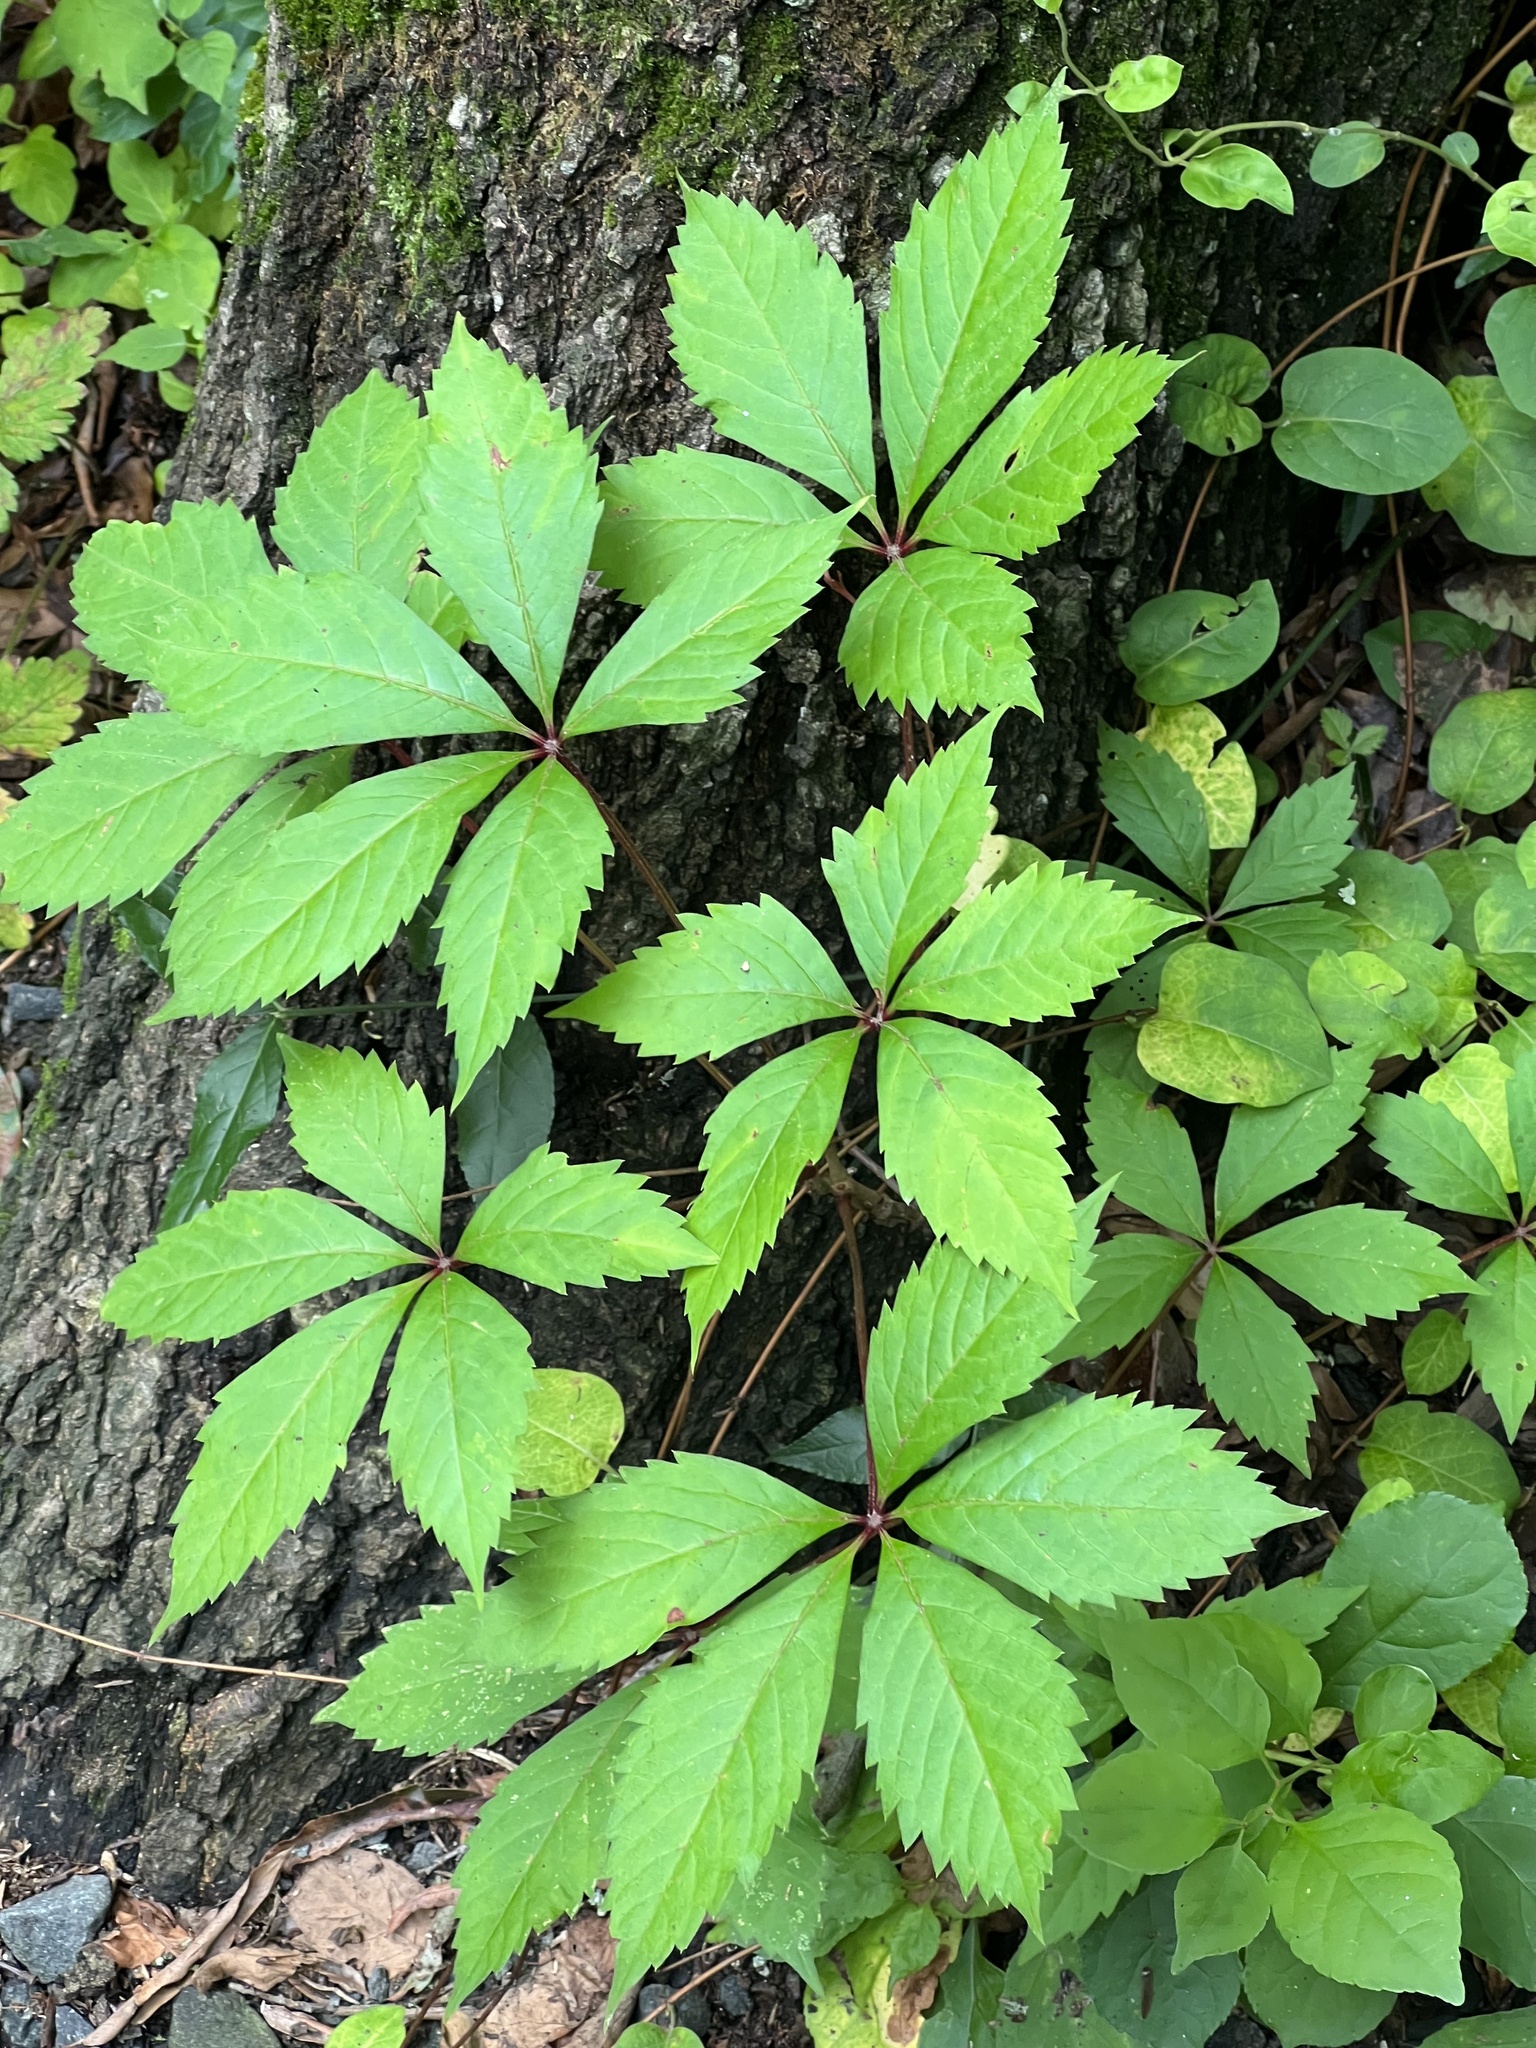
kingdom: Plantae
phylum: Tracheophyta
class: Magnoliopsida
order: Vitales
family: Vitaceae
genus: Parthenocissus
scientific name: Parthenocissus quinquefolia
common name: Virginia-creeper
